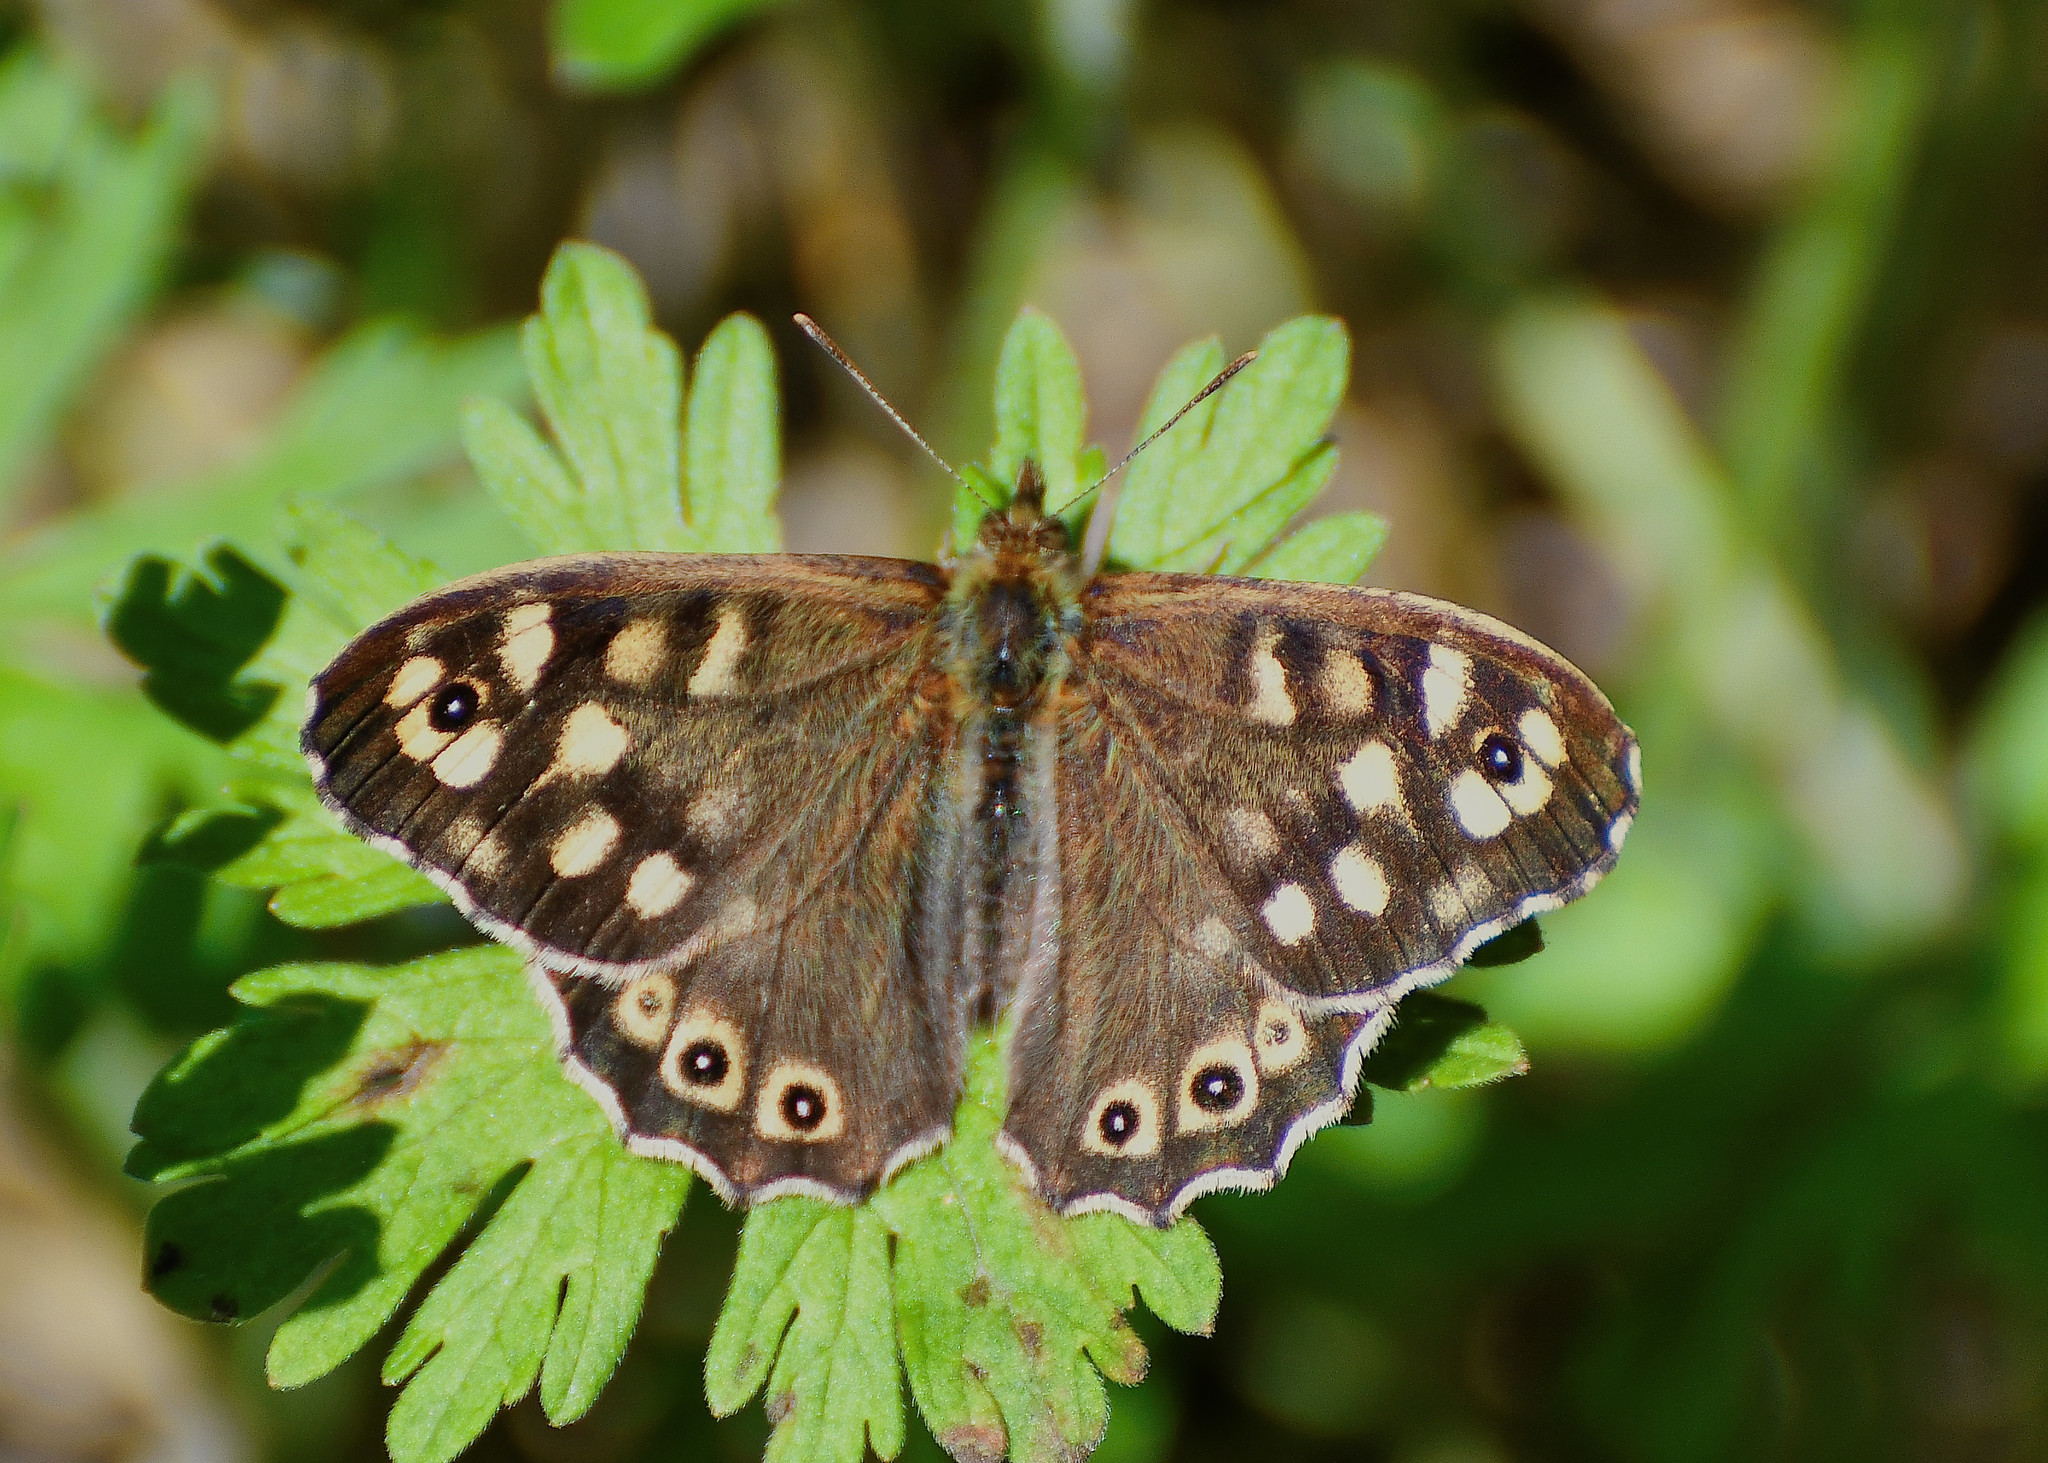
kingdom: Animalia
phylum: Arthropoda
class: Insecta
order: Lepidoptera
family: Nymphalidae
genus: Pararge
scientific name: Pararge aegeria
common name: Speckled wood
